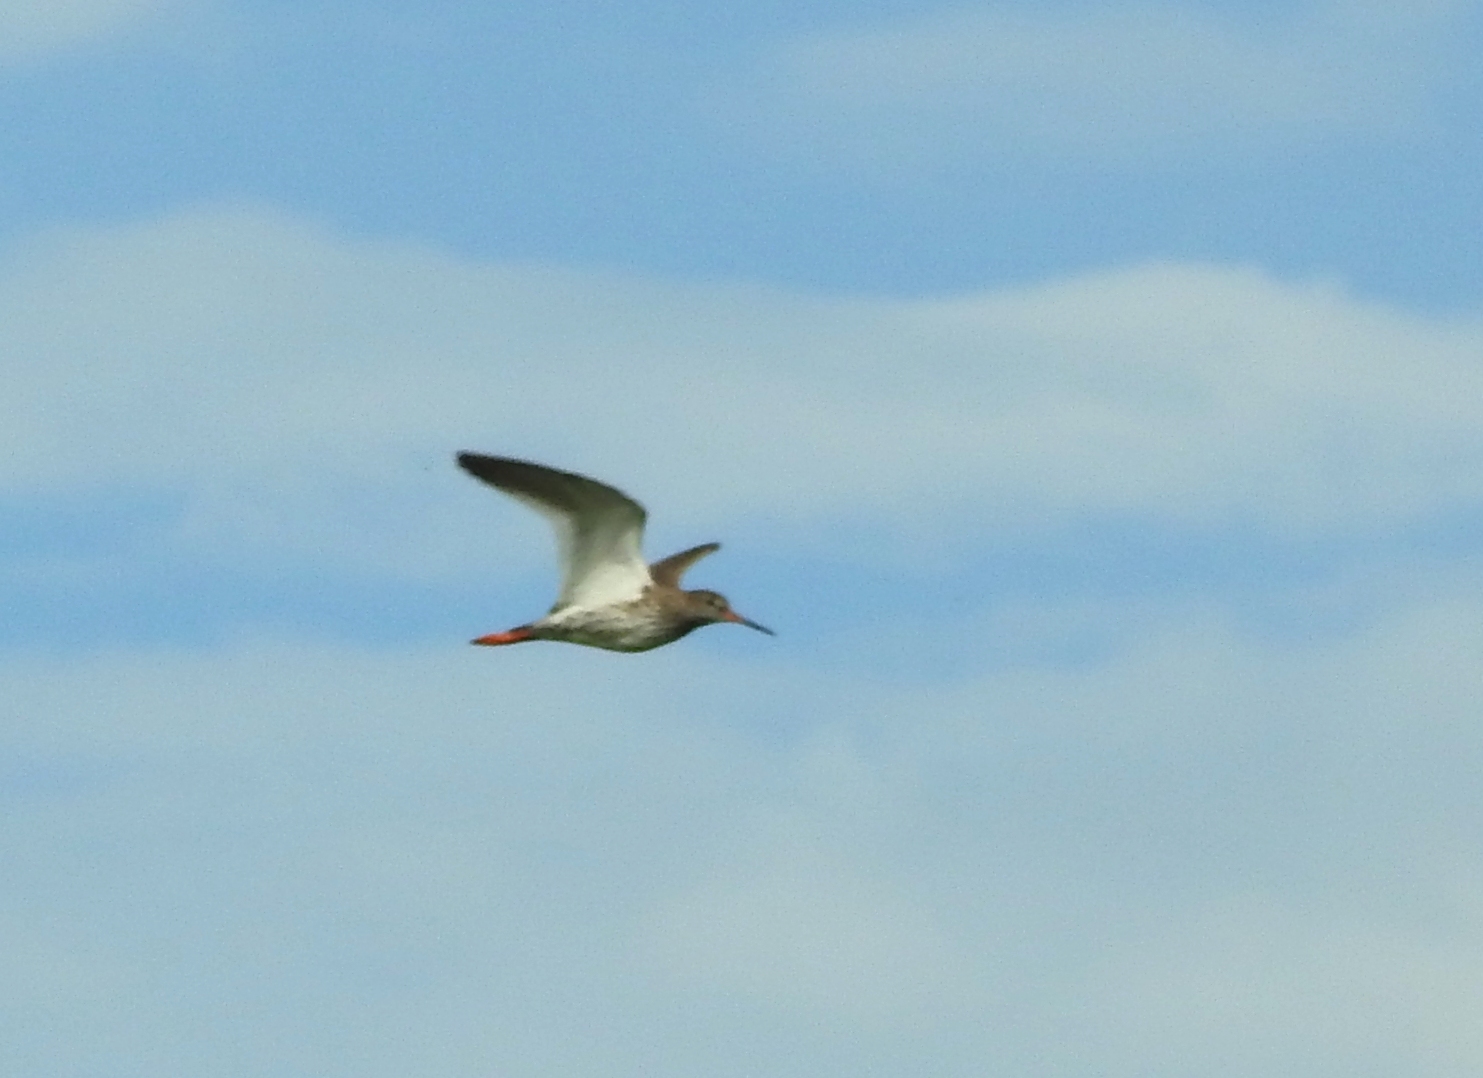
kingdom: Animalia
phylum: Chordata
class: Aves
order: Charadriiformes
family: Scolopacidae
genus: Tringa
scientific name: Tringa totanus
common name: Common redshank
